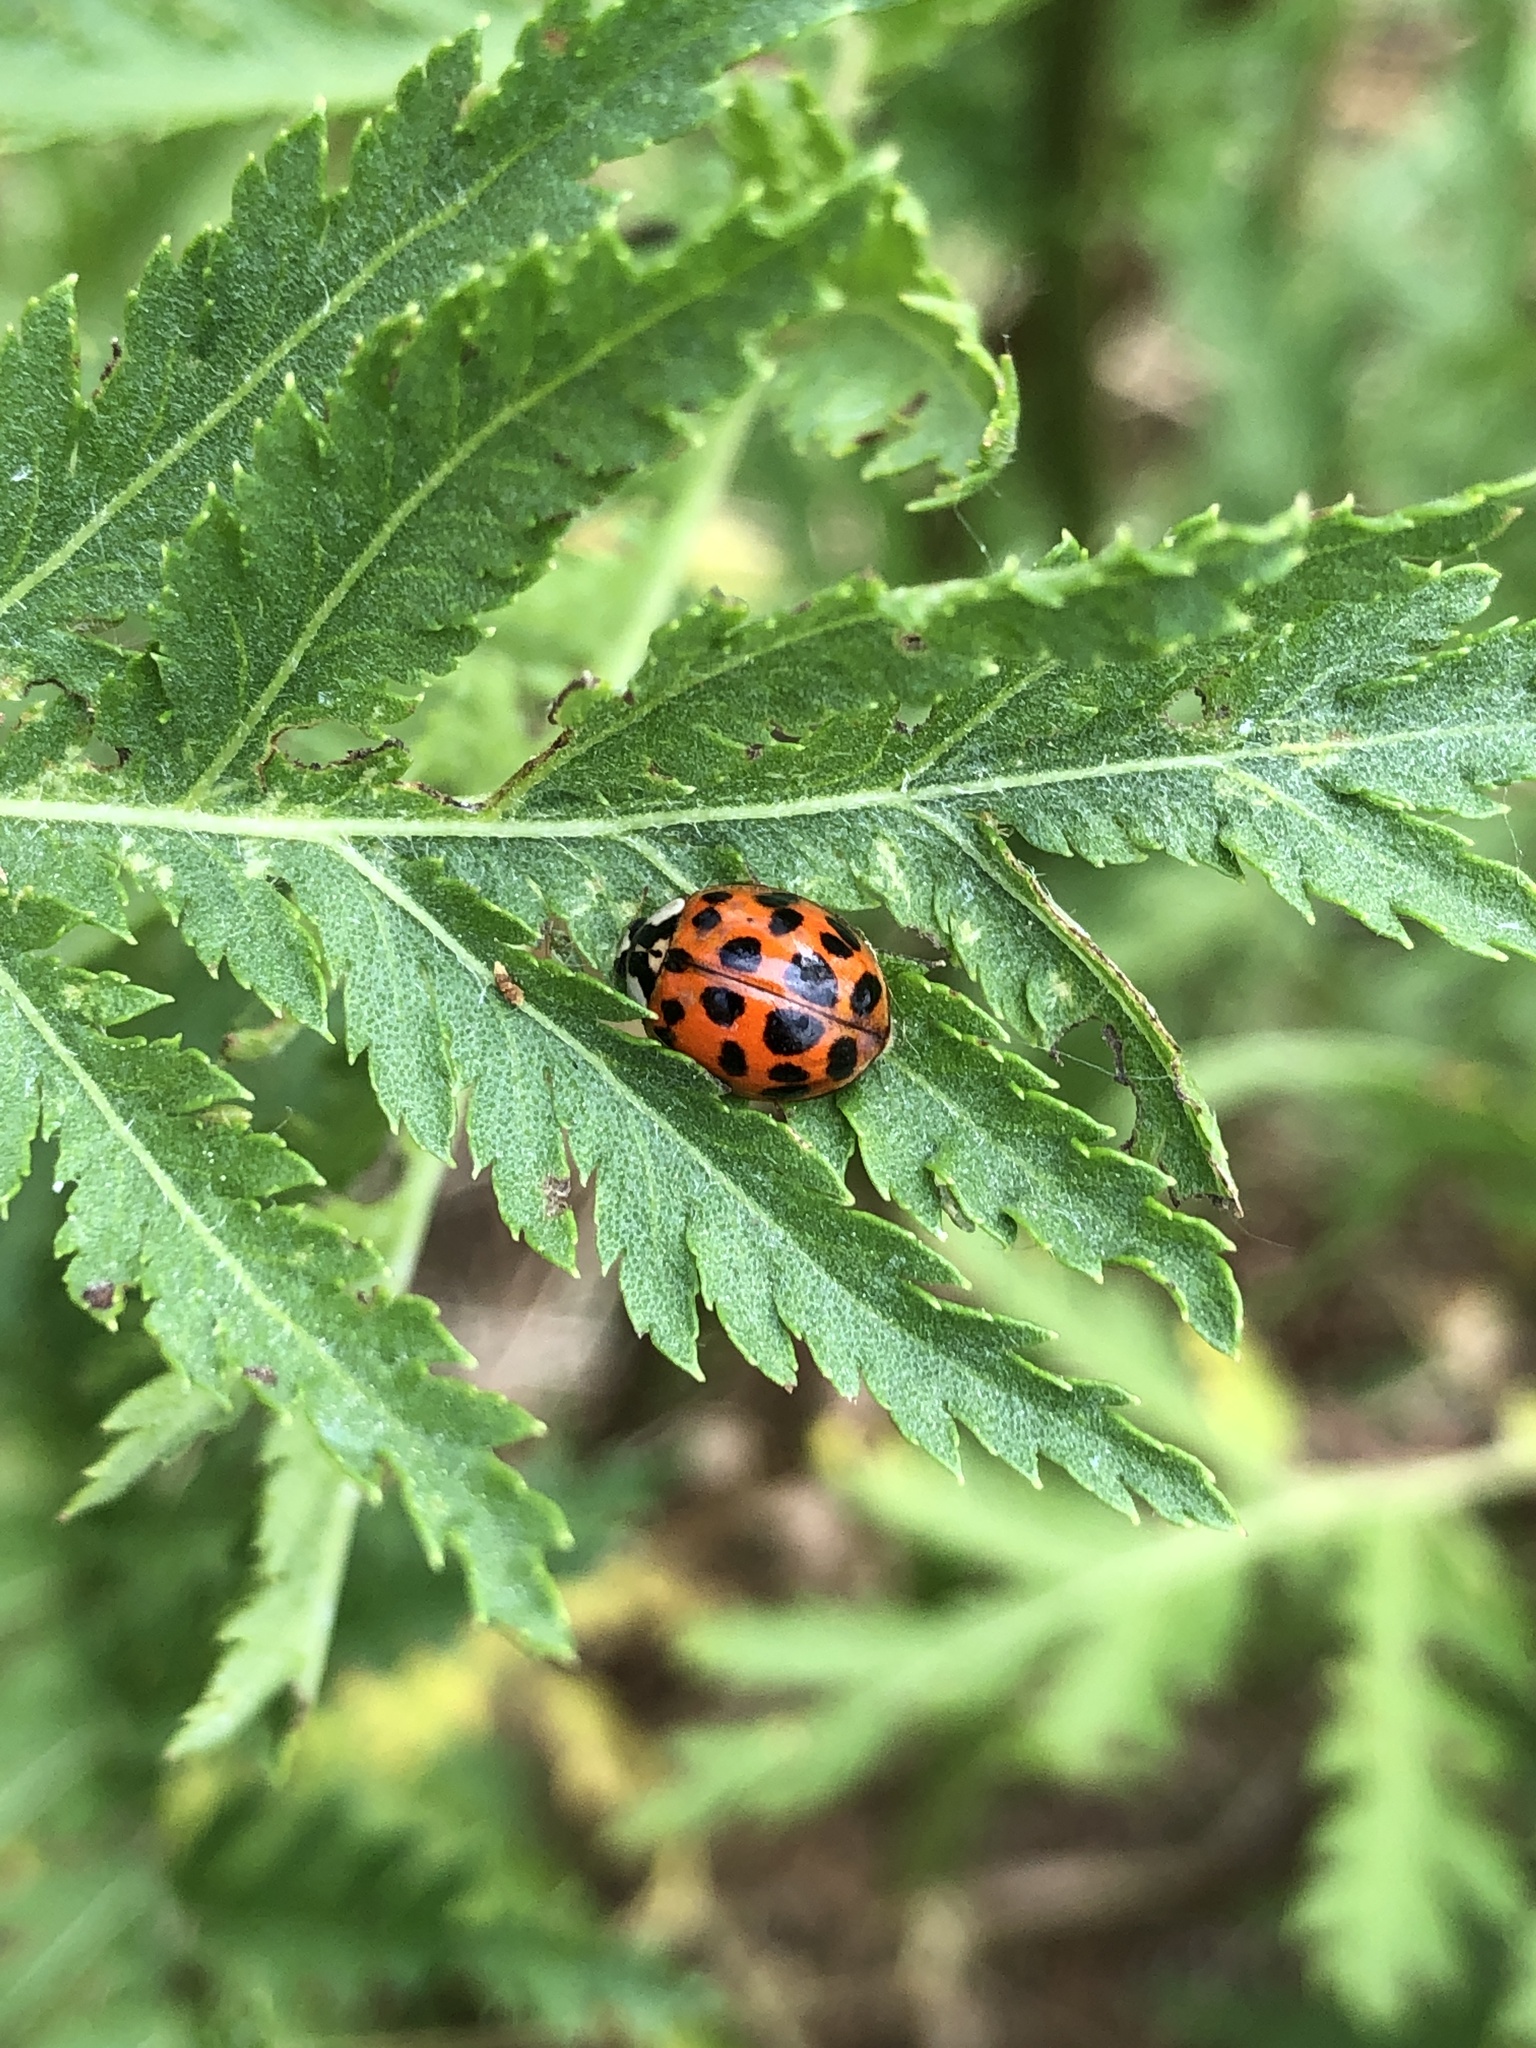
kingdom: Animalia
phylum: Arthropoda
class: Insecta
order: Coleoptera
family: Coccinellidae
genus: Harmonia
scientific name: Harmonia axyridis
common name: Harlequin ladybird
